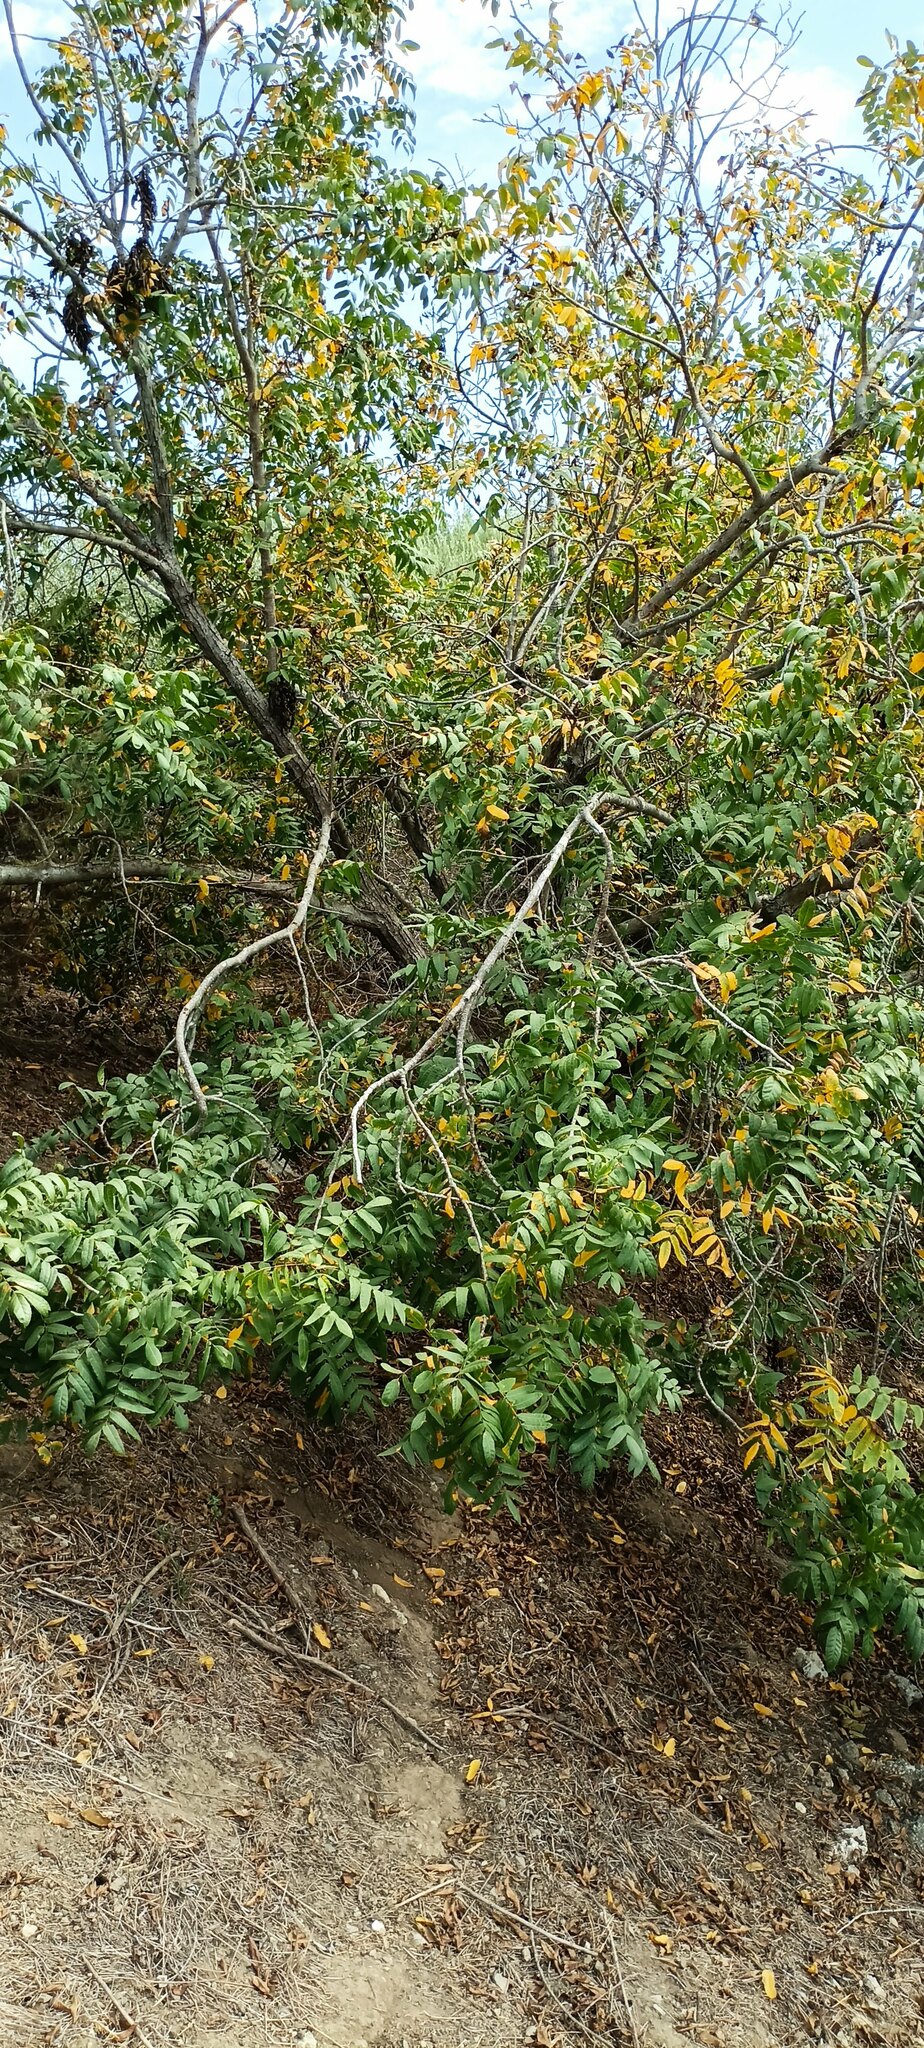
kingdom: Plantae
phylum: Tracheophyta
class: Magnoliopsida
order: Fagales
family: Juglandaceae
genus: Juglans
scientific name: Juglans californica
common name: Southern california black walnut
